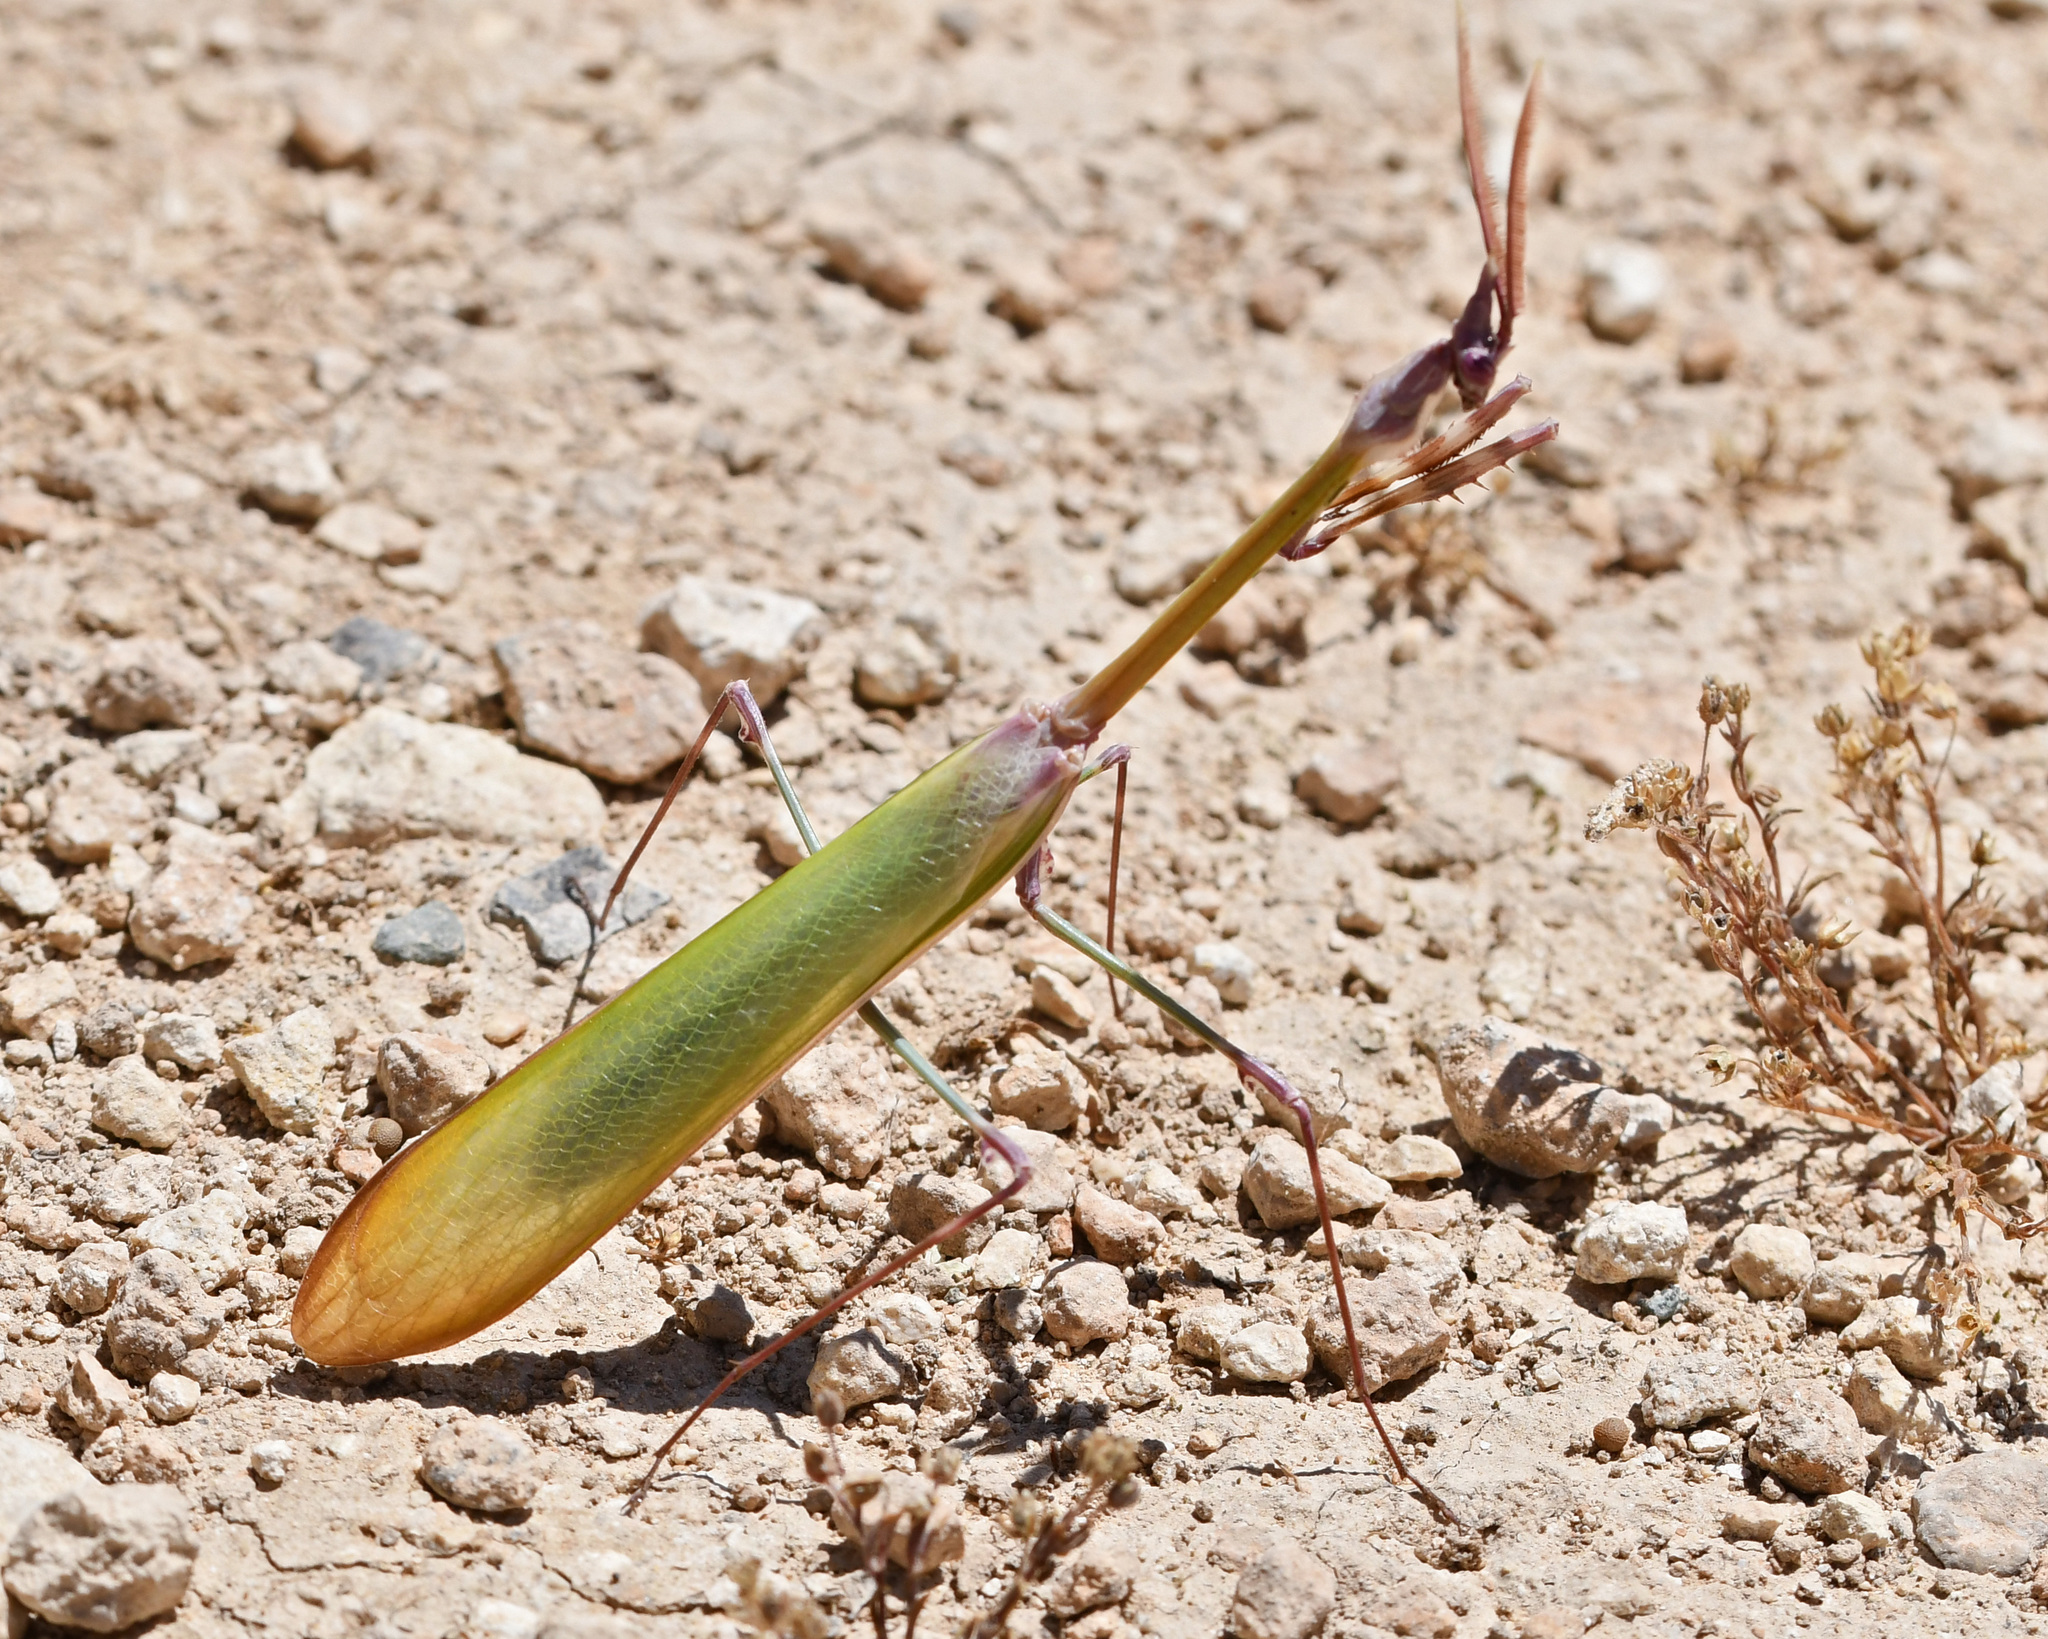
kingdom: Animalia
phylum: Arthropoda
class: Insecta
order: Mantodea
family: Empusidae
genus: Empusa
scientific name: Empusa fasciata
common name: Devil's mare
